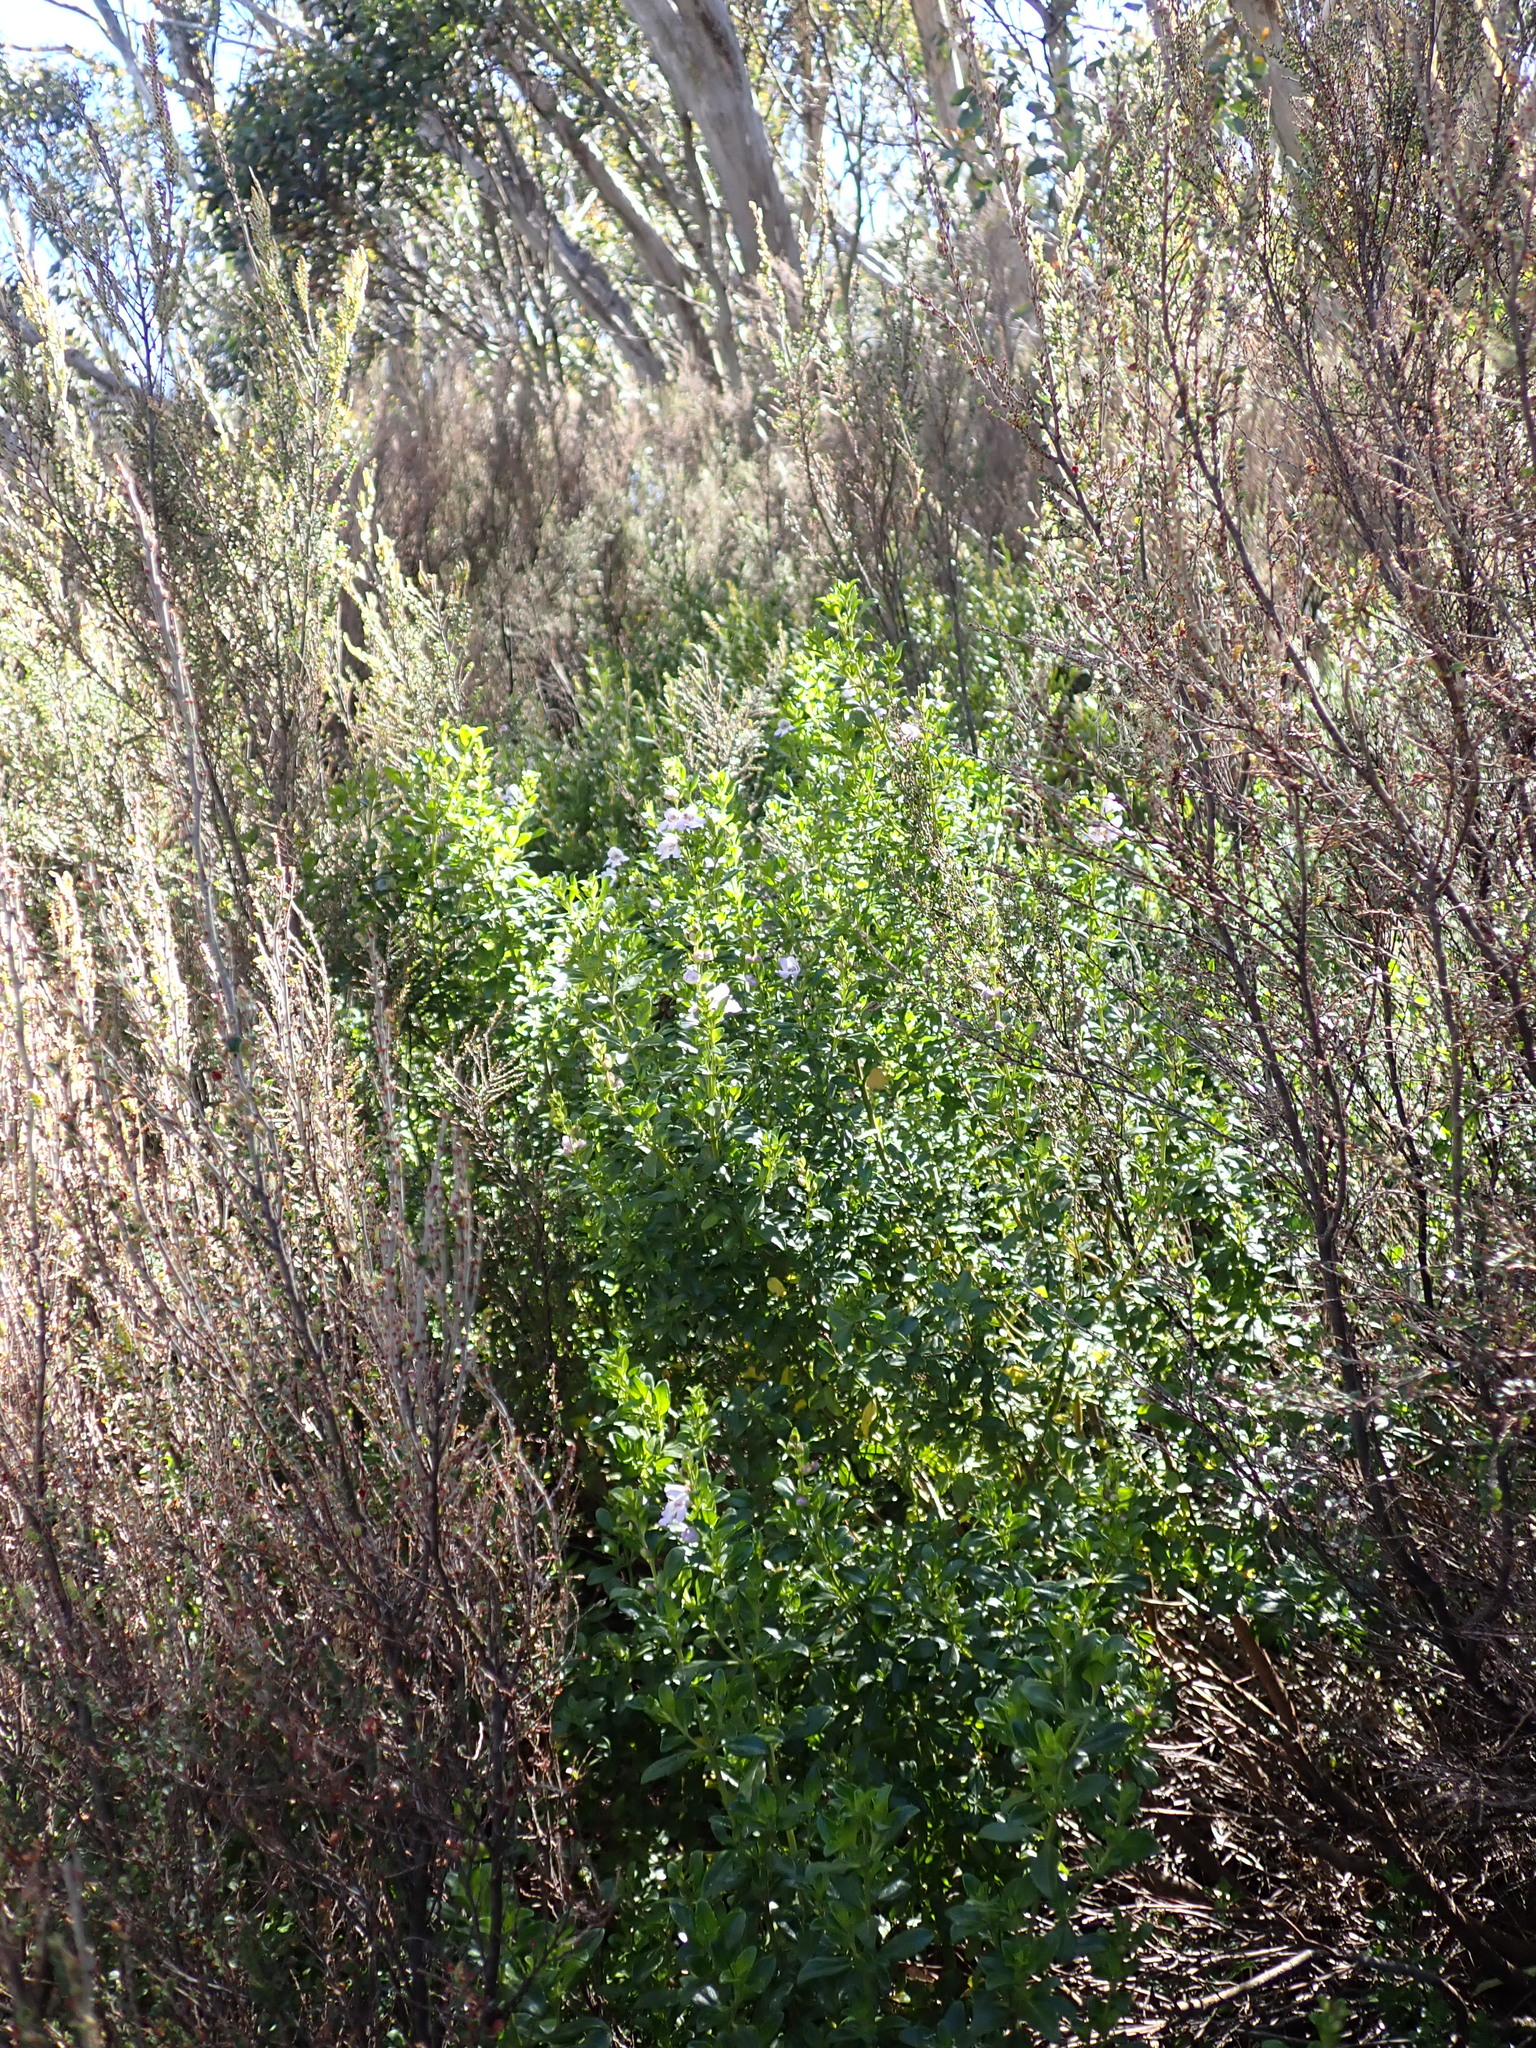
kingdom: Plantae
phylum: Tracheophyta
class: Magnoliopsida
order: Gentianales
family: Rubiaceae
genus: Coprosma
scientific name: Coprosma hirtella
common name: Rough coprosma
